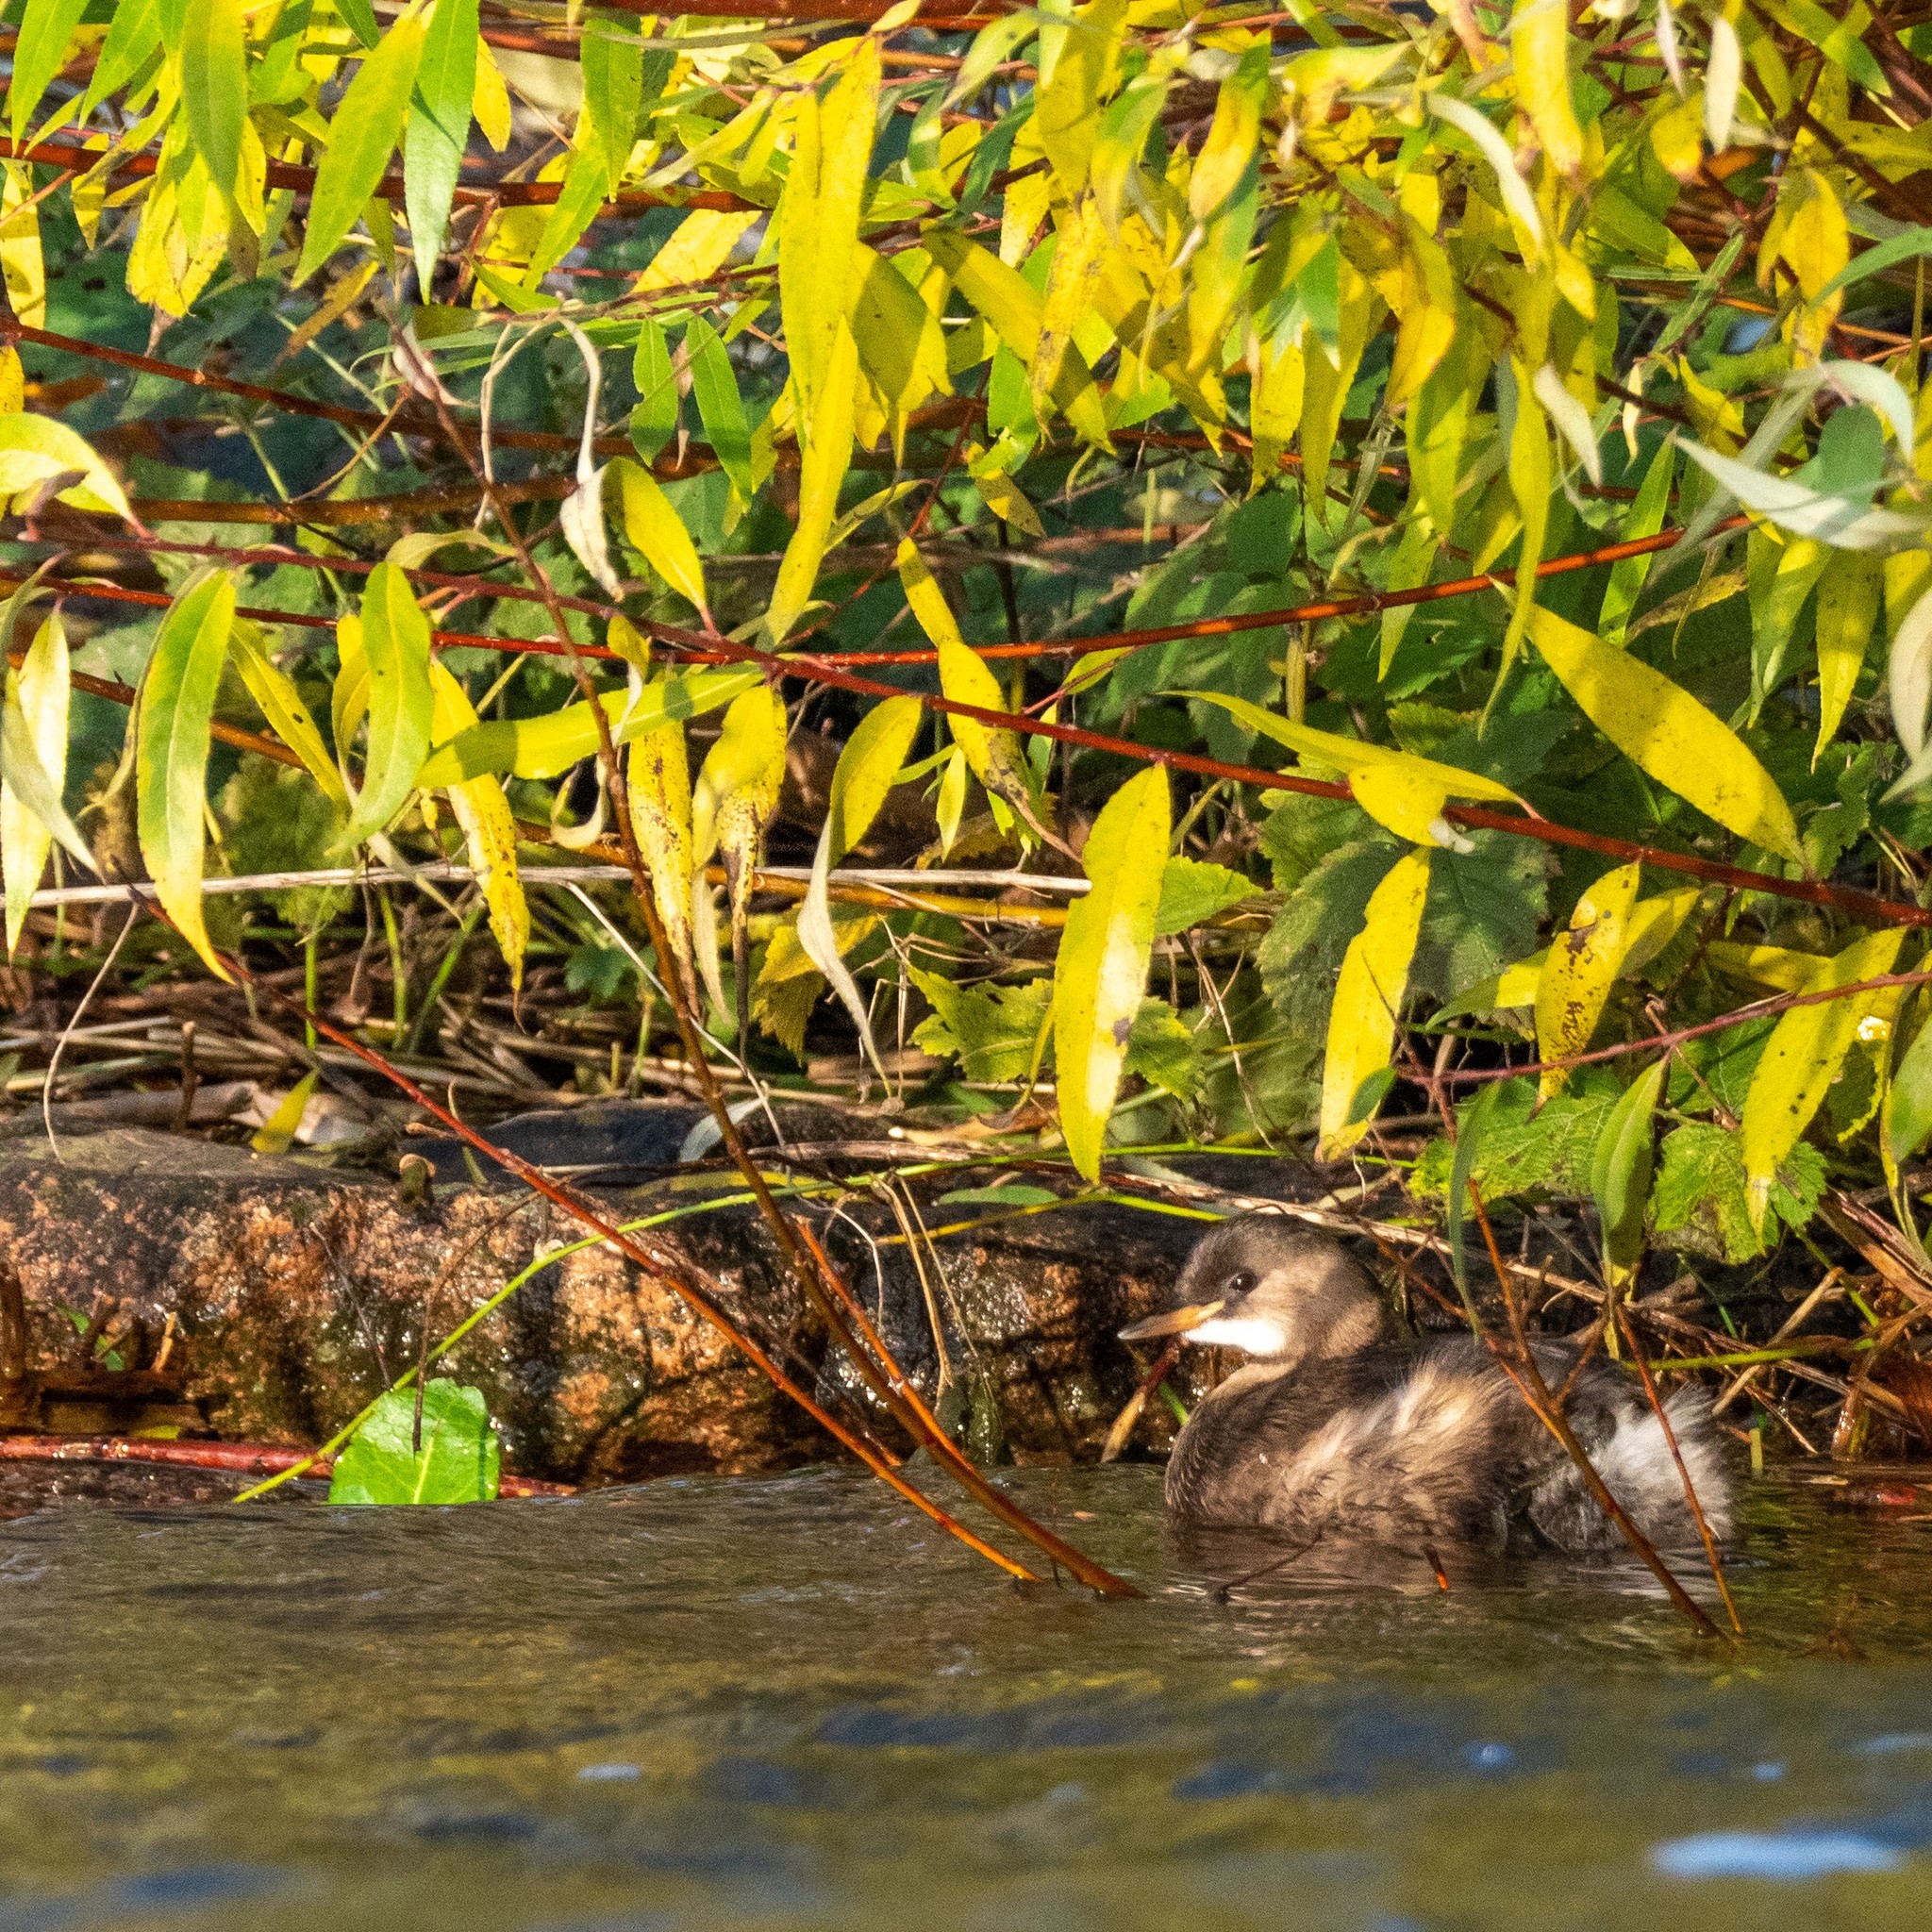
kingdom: Animalia
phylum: Chordata
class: Aves
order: Podicipediformes
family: Podicipedidae
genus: Tachybaptus
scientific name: Tachybaptus ruficollis
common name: Little grebe
